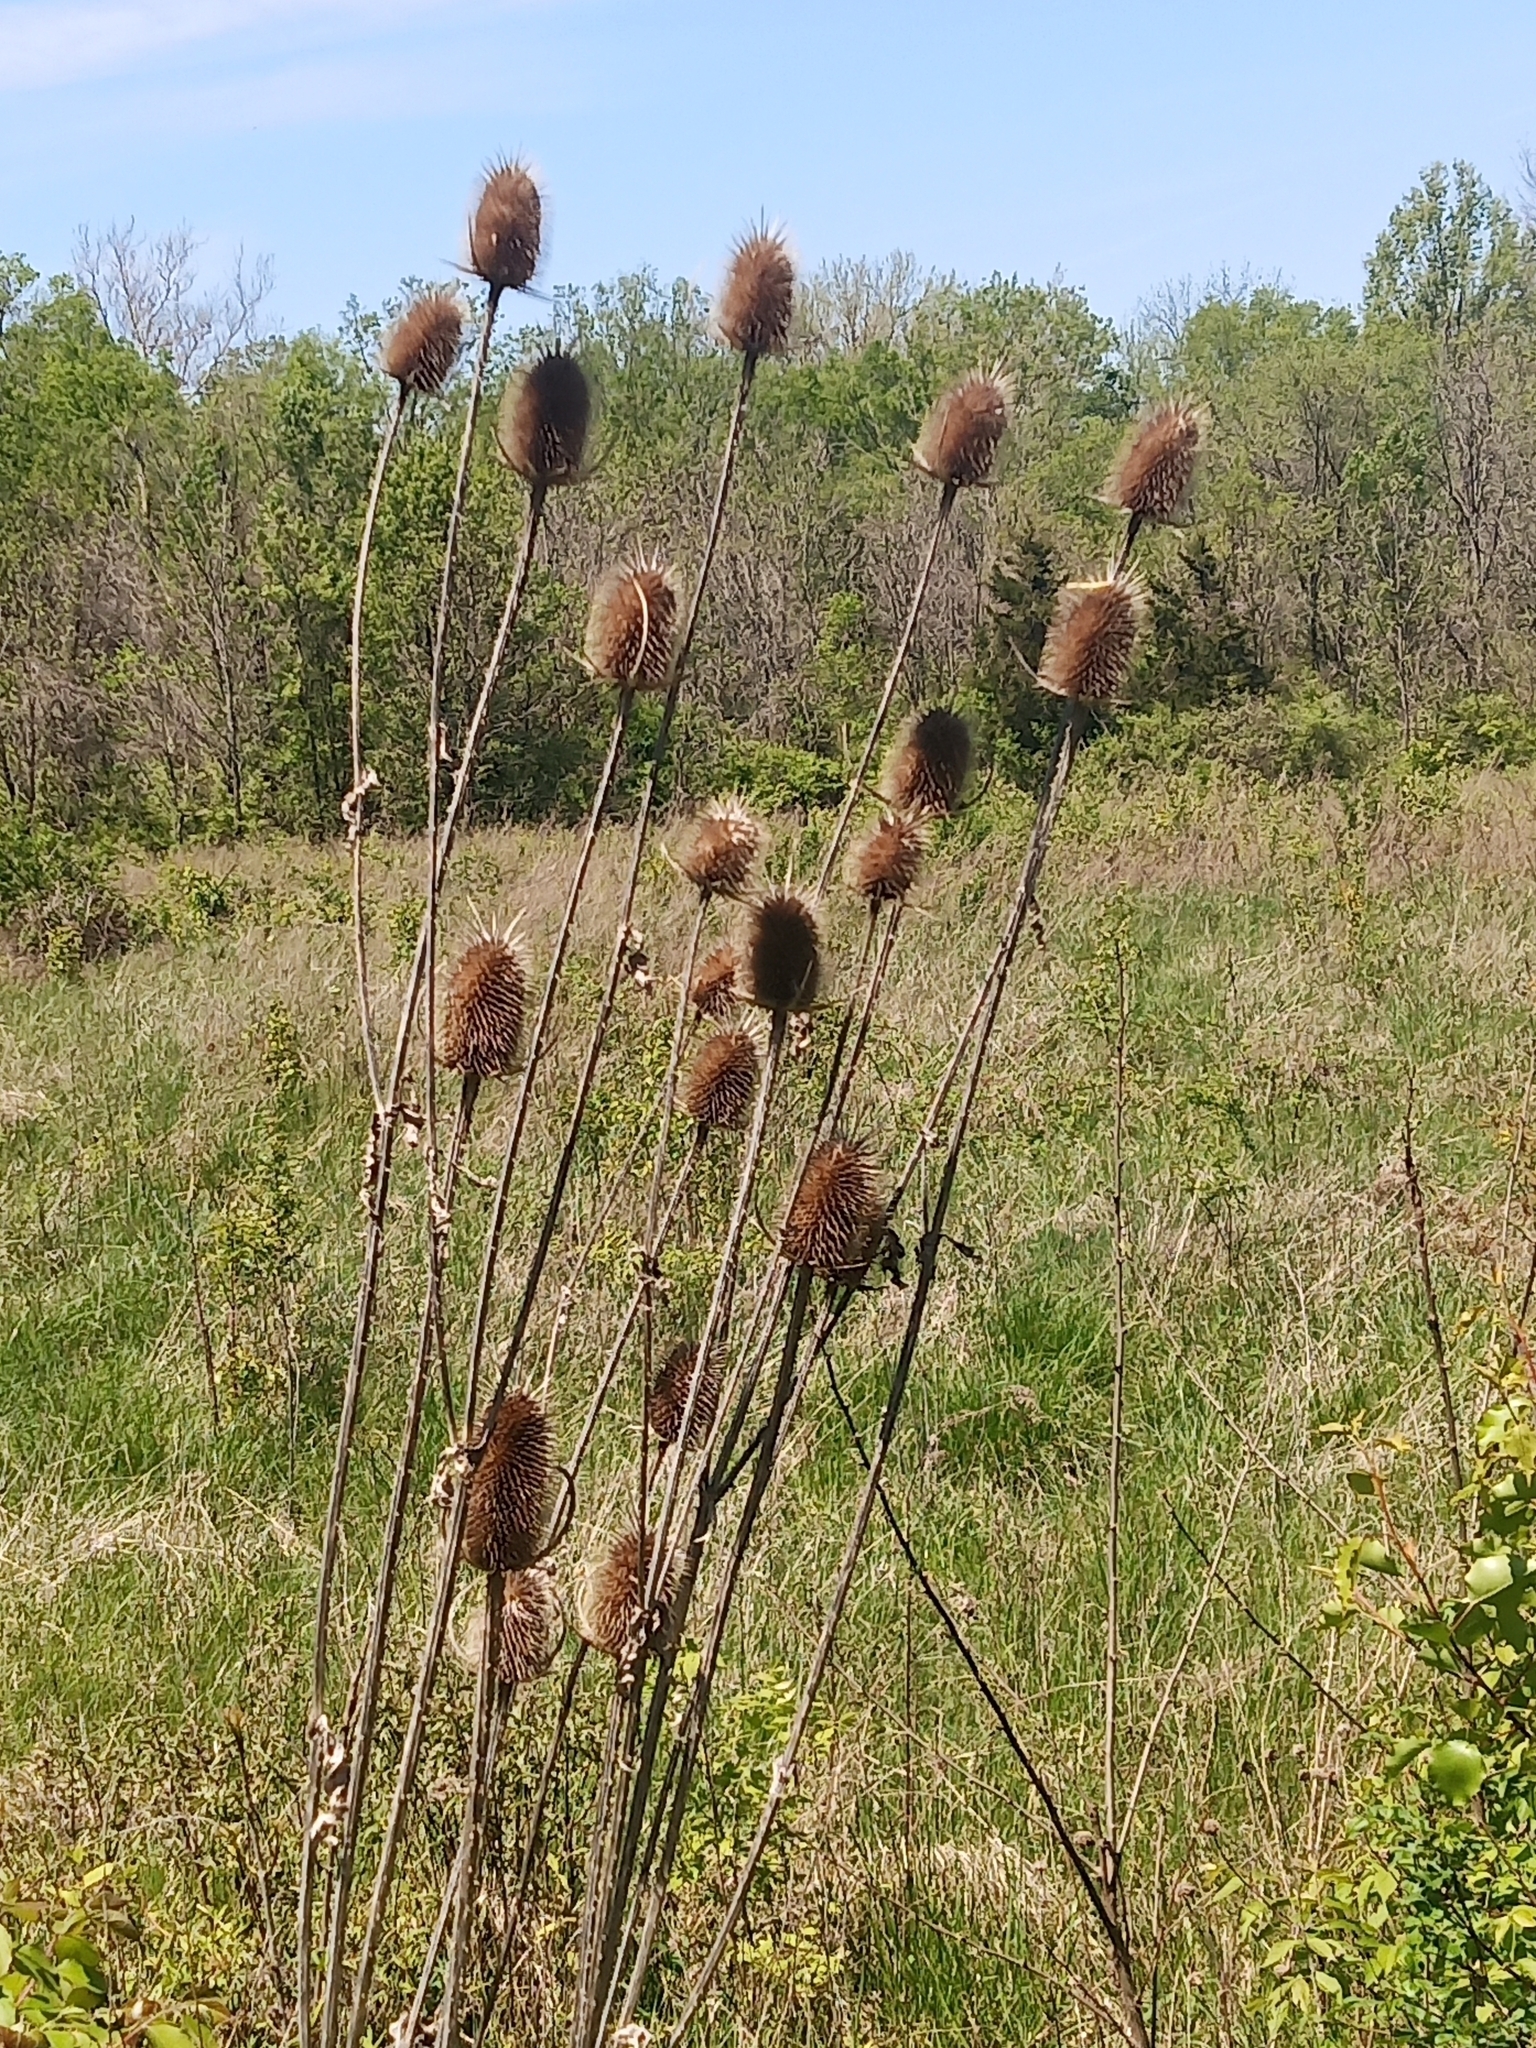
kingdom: Plantae
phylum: Tracheophyta
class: Magnoliopsida
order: Dipsacales
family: Caprifoliaceae
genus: Dipsacus
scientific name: Dipsacus laciniatus
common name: Cut-leaved teasel
